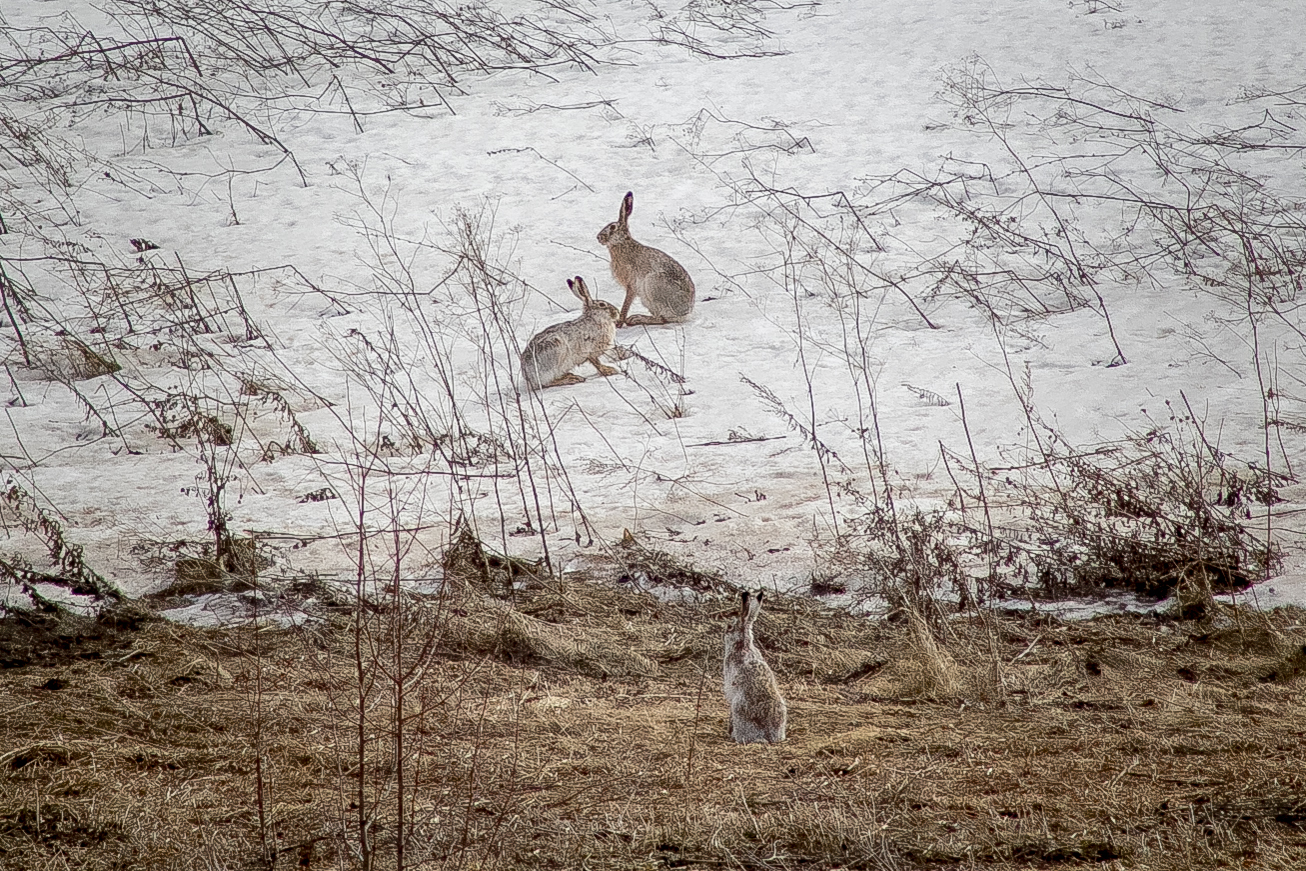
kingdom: Animalia
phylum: Chordata
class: Mammalia
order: Lagomorpha
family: Leporidae
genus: Lepus
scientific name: Lepus europaeus
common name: European hare
